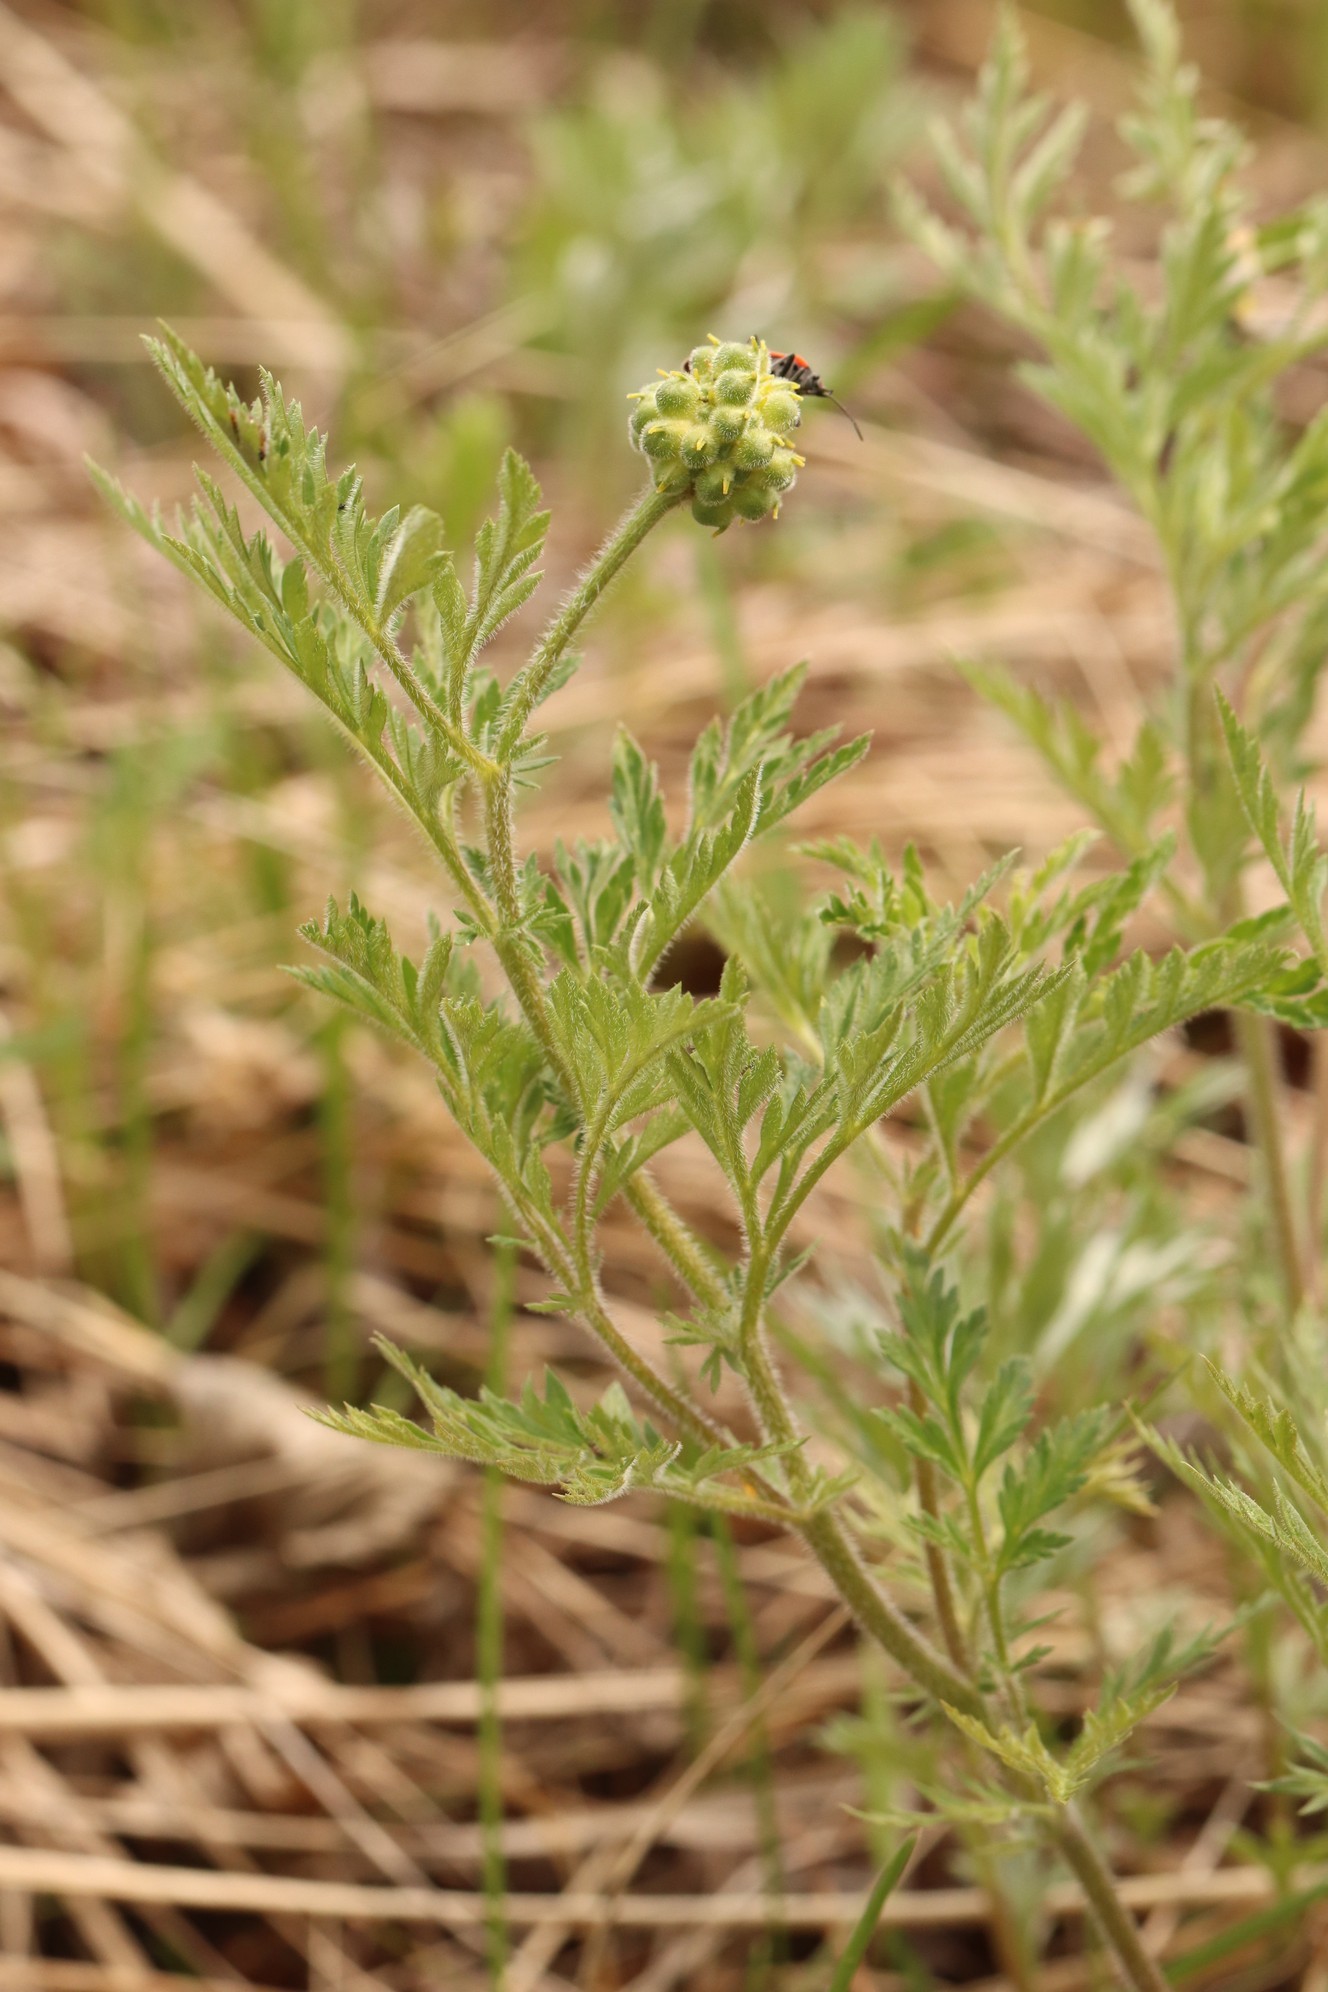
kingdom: Plantae
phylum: Tracheophyta
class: Magnoliopsida
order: Ranunculales
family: Ranunculaceae
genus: Adonis
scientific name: Adonis villosa
